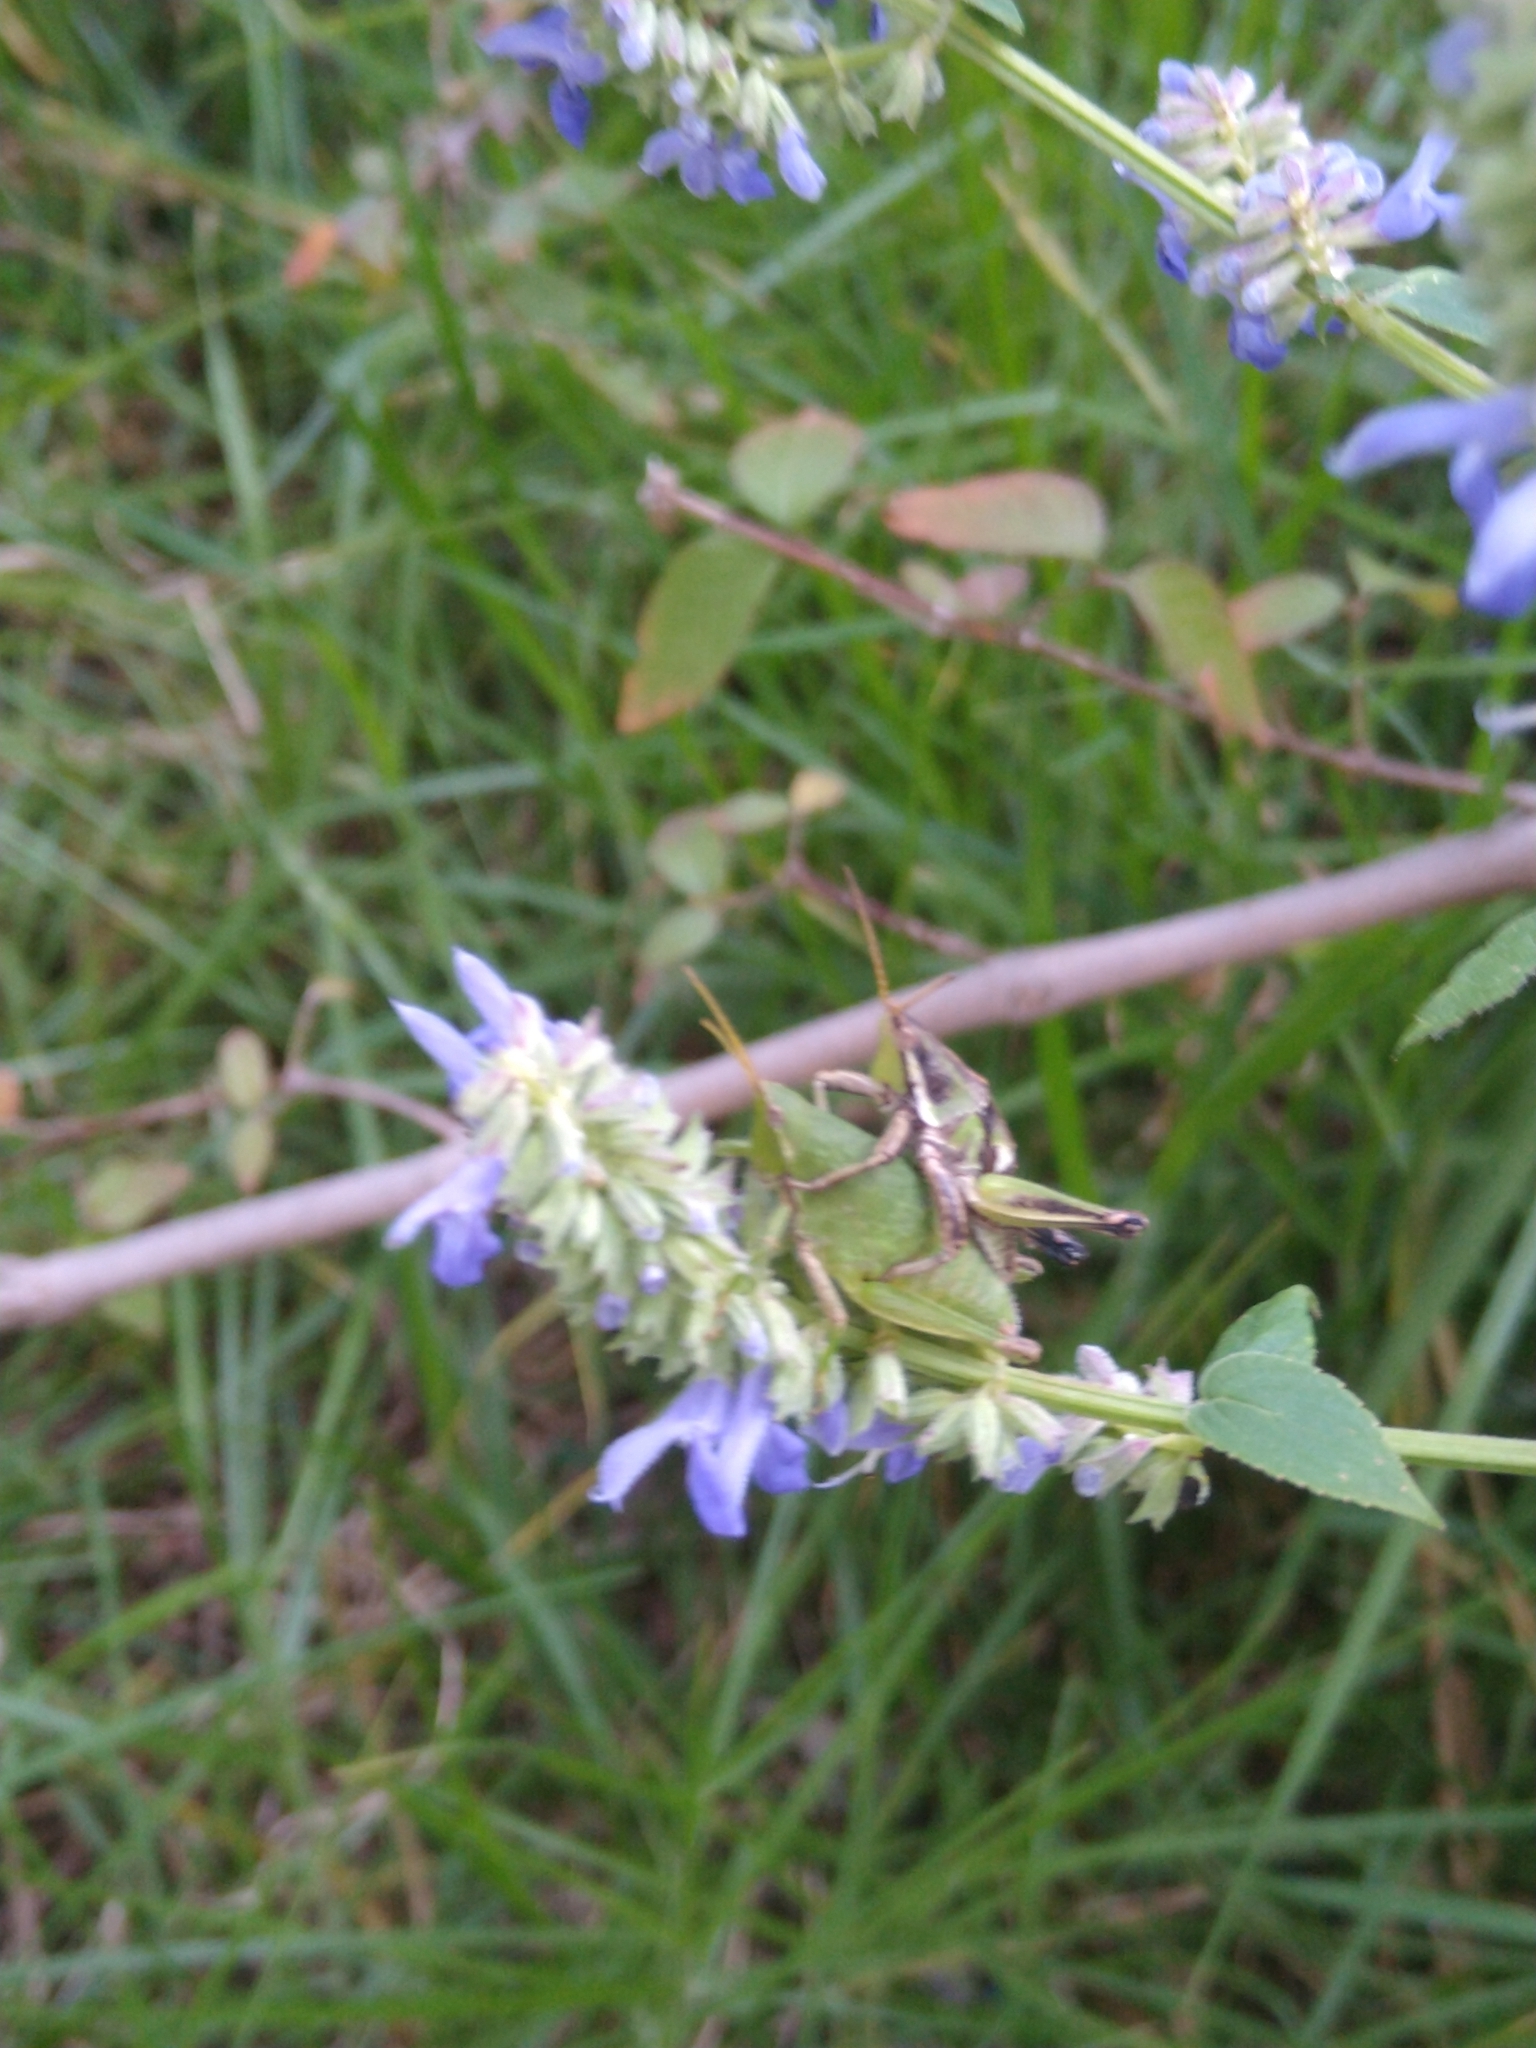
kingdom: Animalia
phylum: Arthropoda
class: Insecta
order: Orthoptera
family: Pyrgomorphidae
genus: Sphenarium
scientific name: Sphenarium purpurascens
